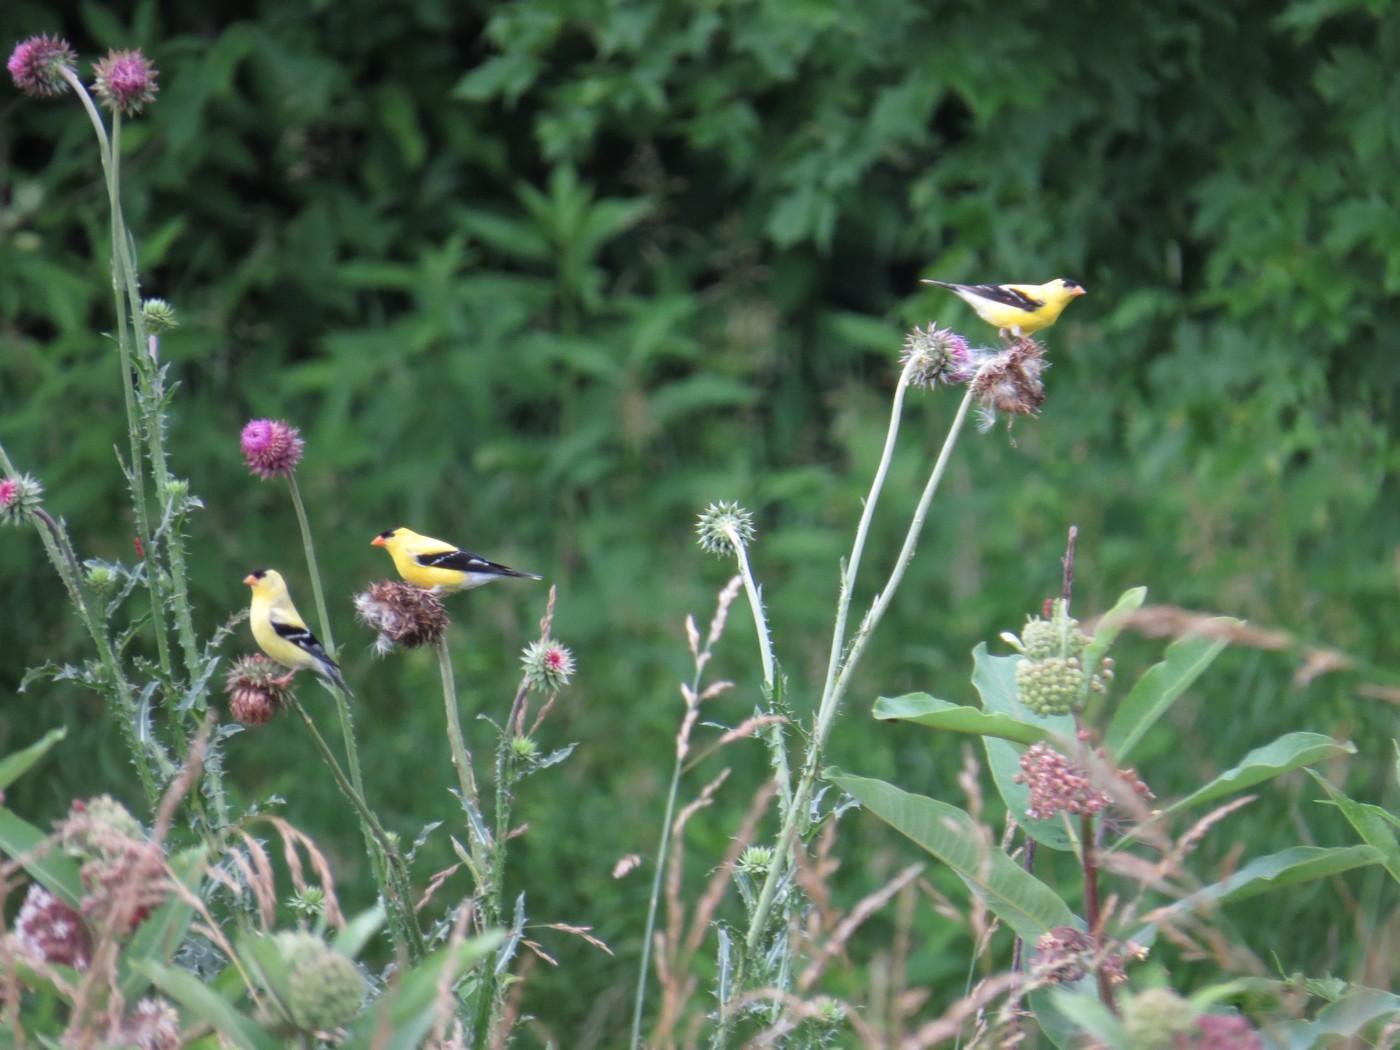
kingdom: Animalia
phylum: Chordata
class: Aves
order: Passeriformes
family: Fringillidae
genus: Spinus
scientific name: Spinus tristis
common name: American goldfinch
